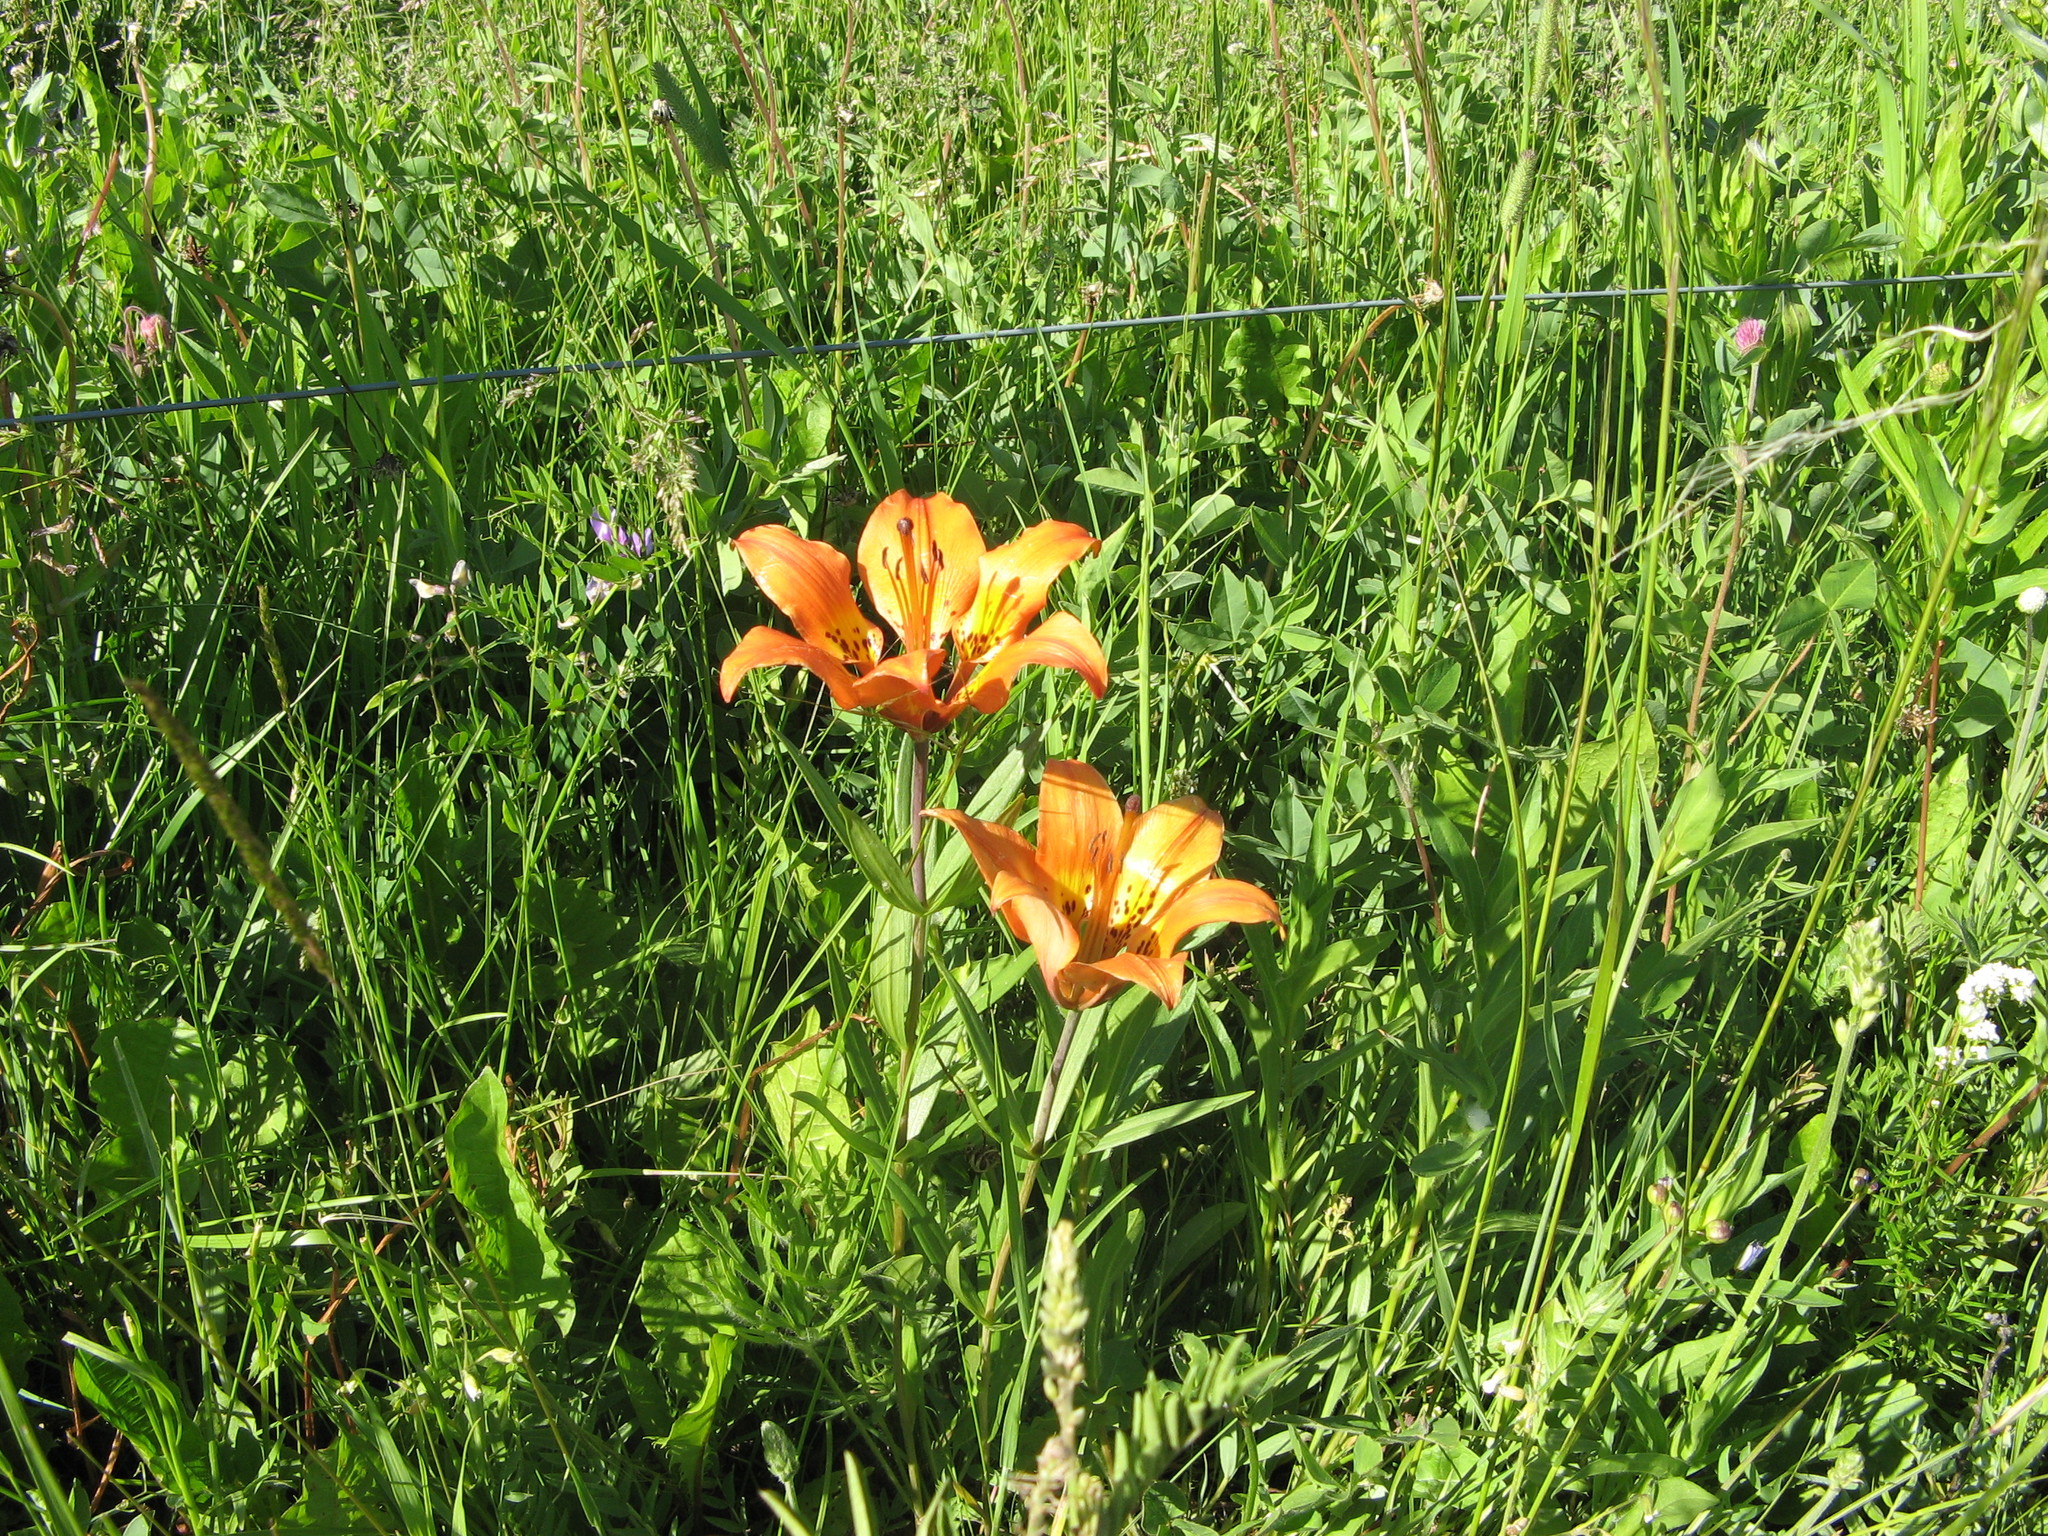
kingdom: Plantae
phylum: Tracheophyta
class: Liliopsida
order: Liliales
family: Liliaceae
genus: Lilium
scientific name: Lilium philadelphicum
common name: Red lily
